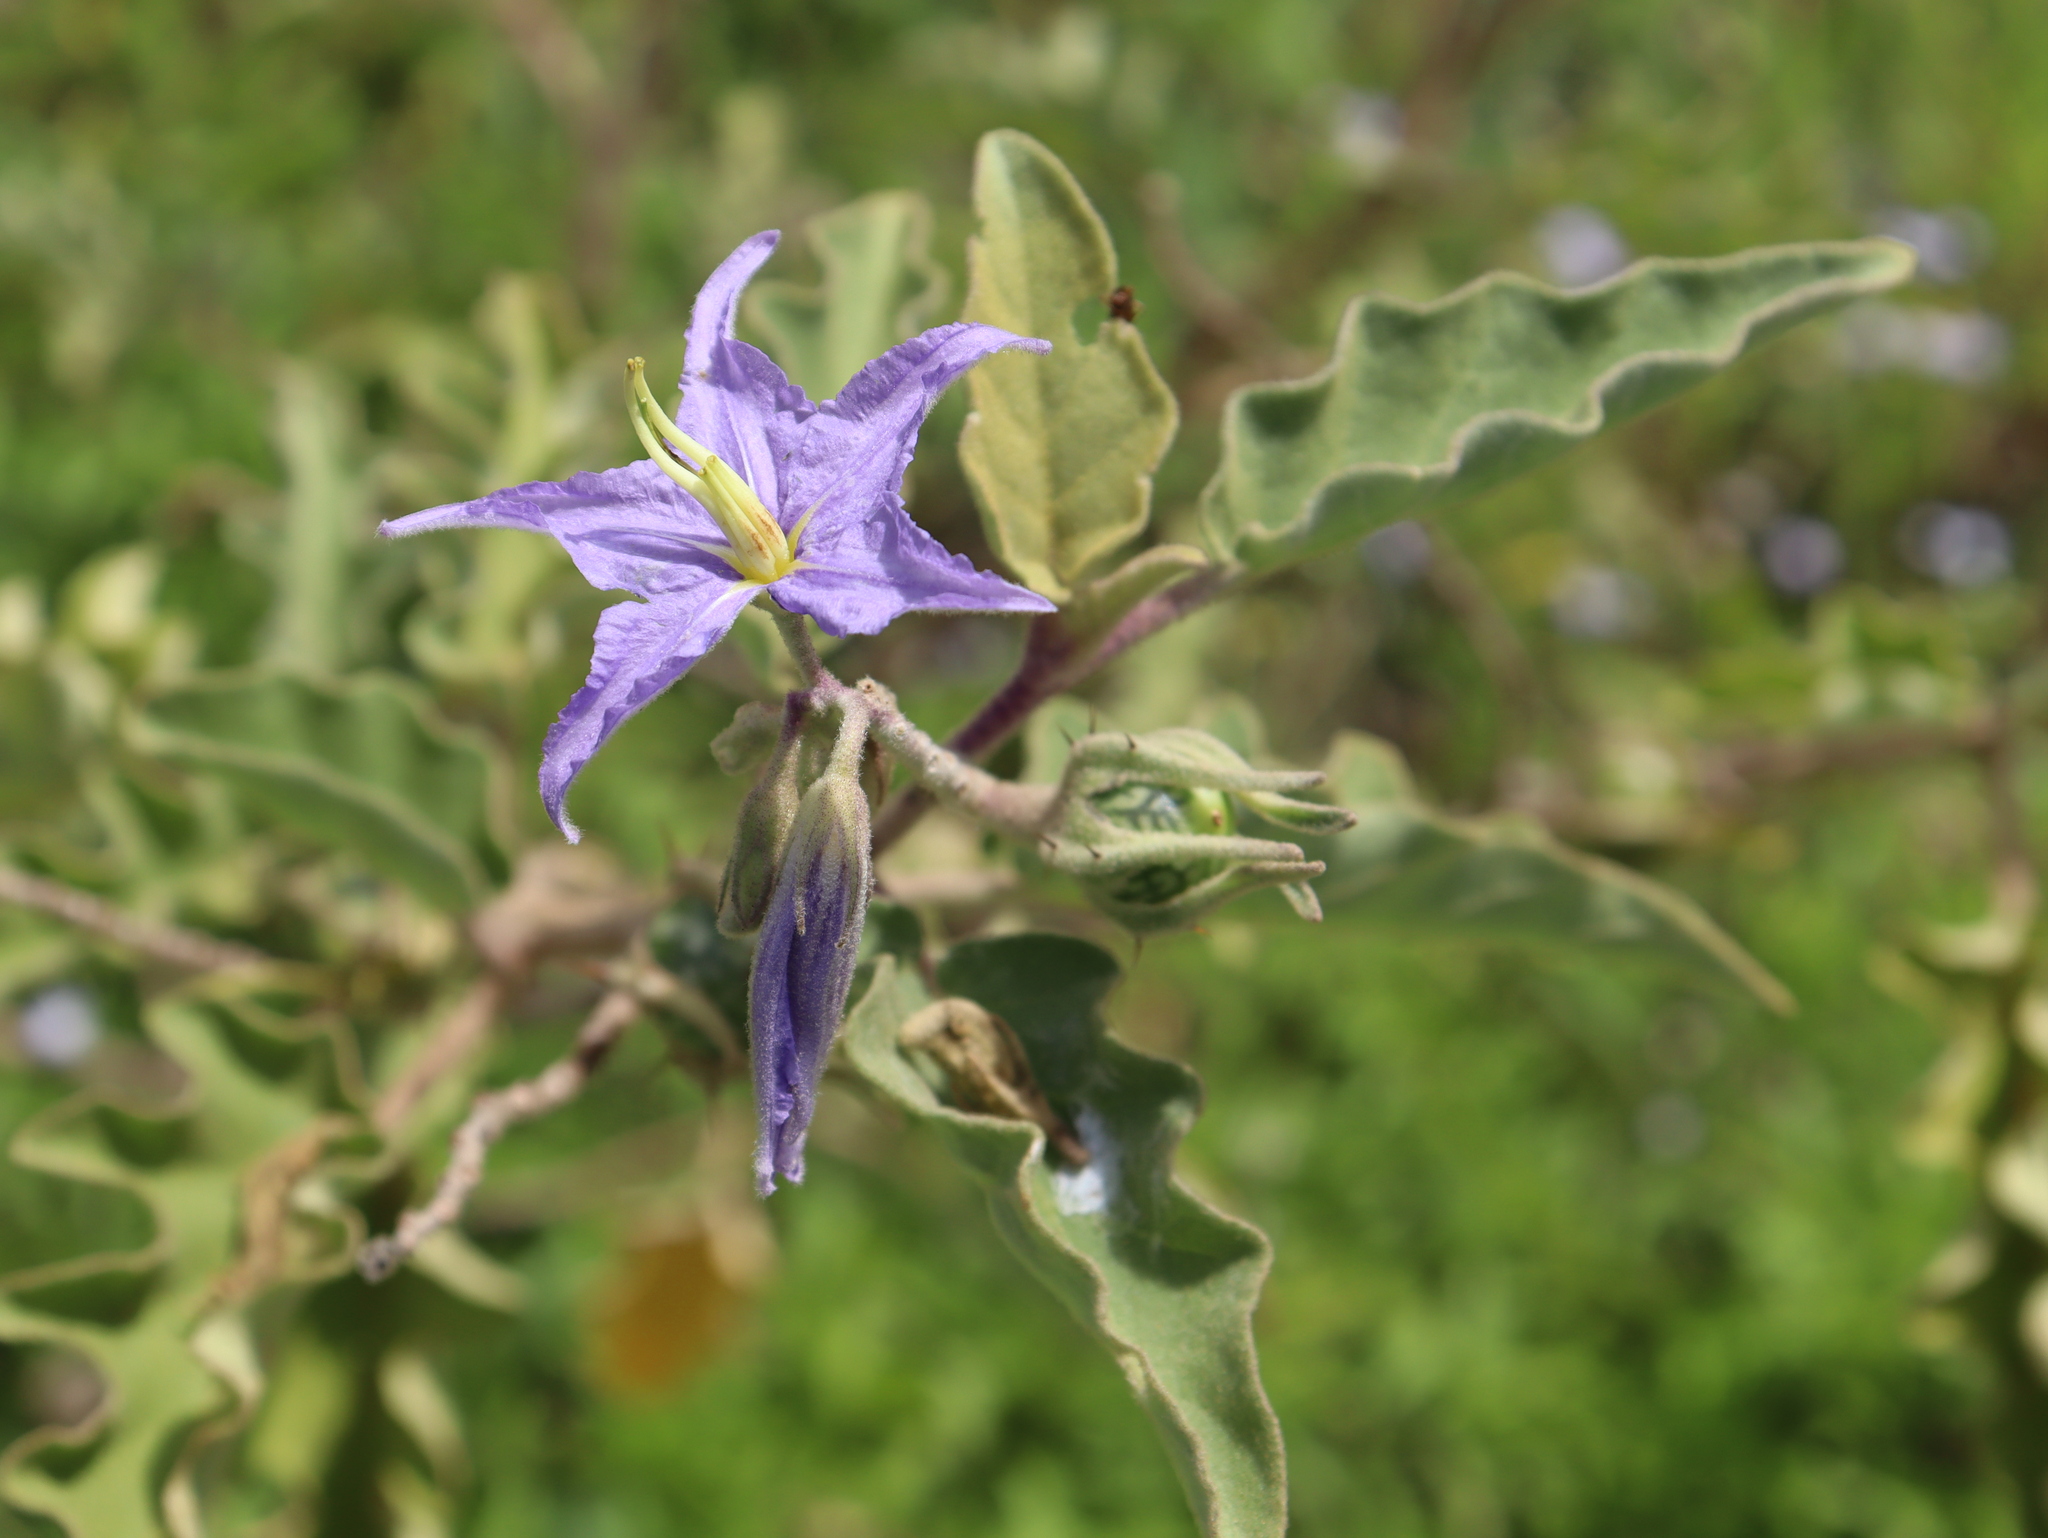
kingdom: Plantae
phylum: Tracheophyta
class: Magnoliopsida
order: Solanales
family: Solanaceae
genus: Solanum
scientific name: Solanum houstonii
